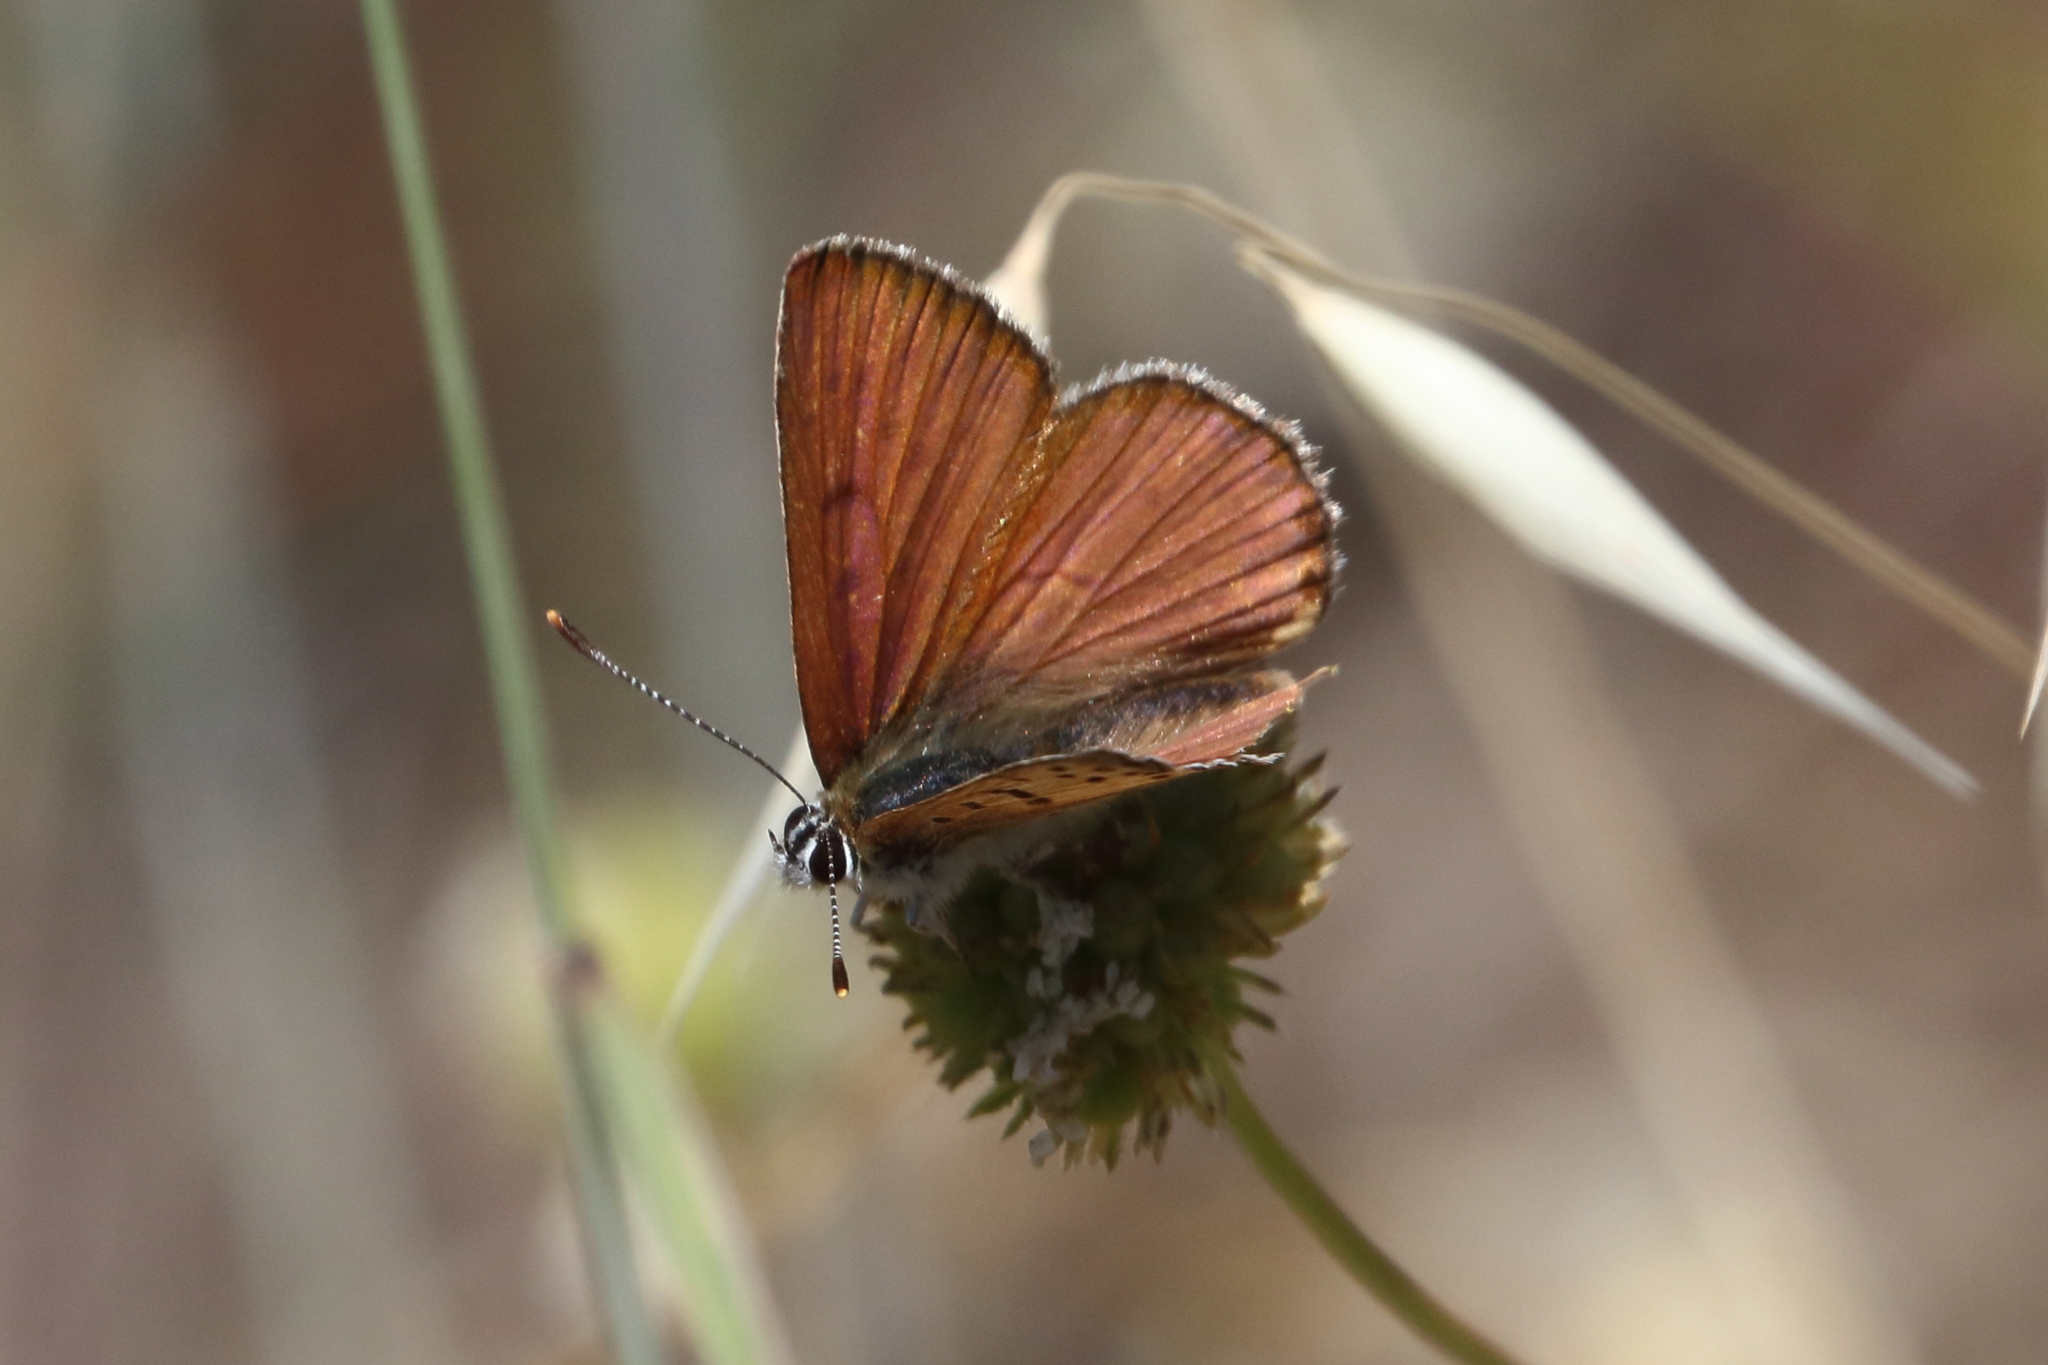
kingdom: Animalia
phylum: Arthropoda
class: Insecta
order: Lepidoptera
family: Lycaenidae
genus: Tharsalea
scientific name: Tharsalea gorgon
